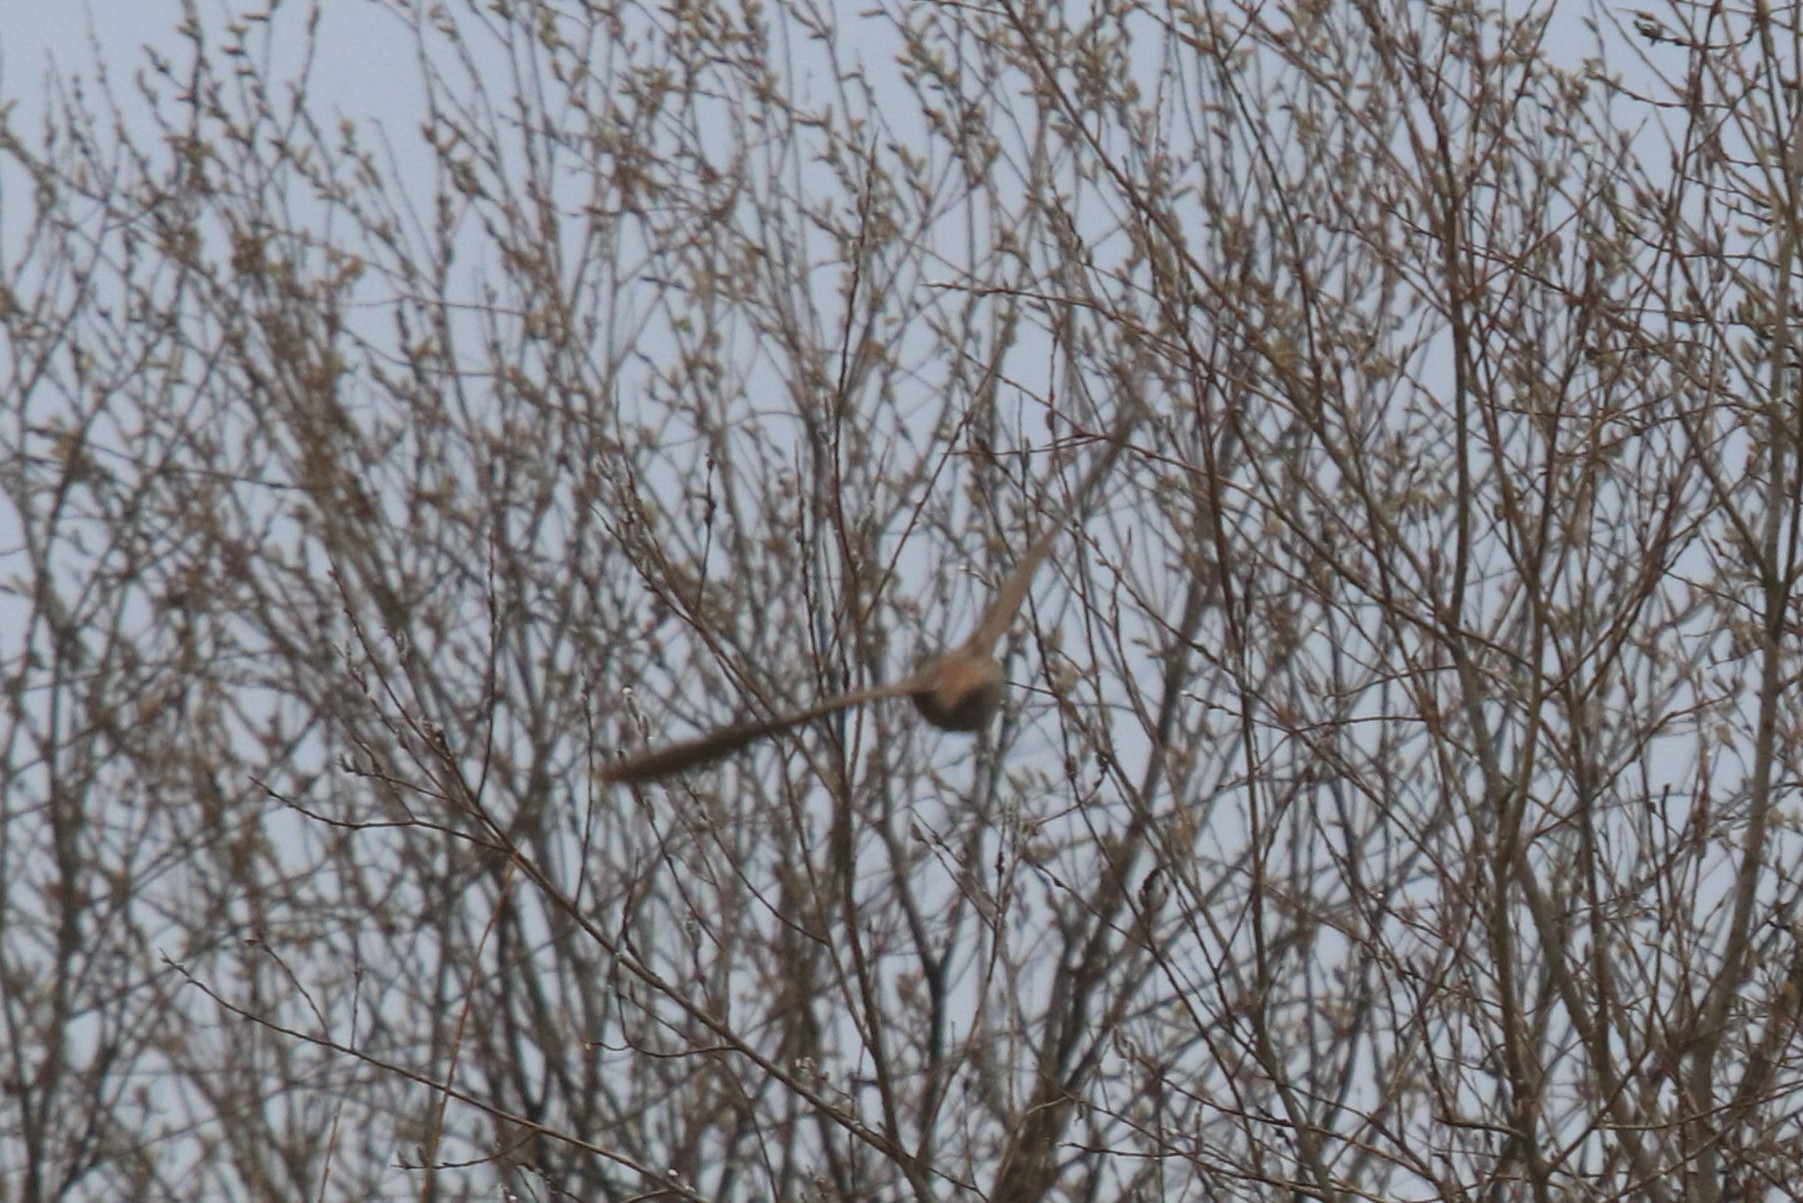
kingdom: Animalia
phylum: Chordata
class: Aves
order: Charadriiformes
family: Scolopacidae
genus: Scolopax
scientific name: Scolopax rusticola
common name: Eurasian woodcock
